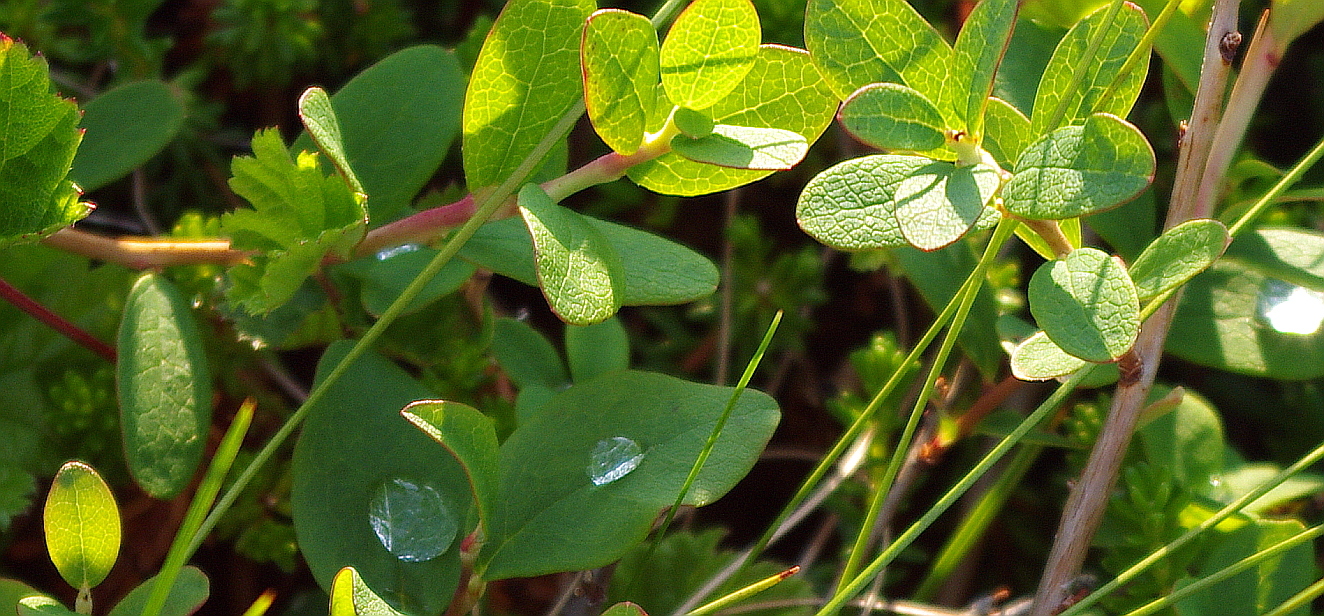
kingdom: Plantae
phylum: Tracheophyta
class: Magnoliopsida
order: Ericales
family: Ericaceae
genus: Vaccinium
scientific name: Vaccinium uliginosum
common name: Bog bilberry
